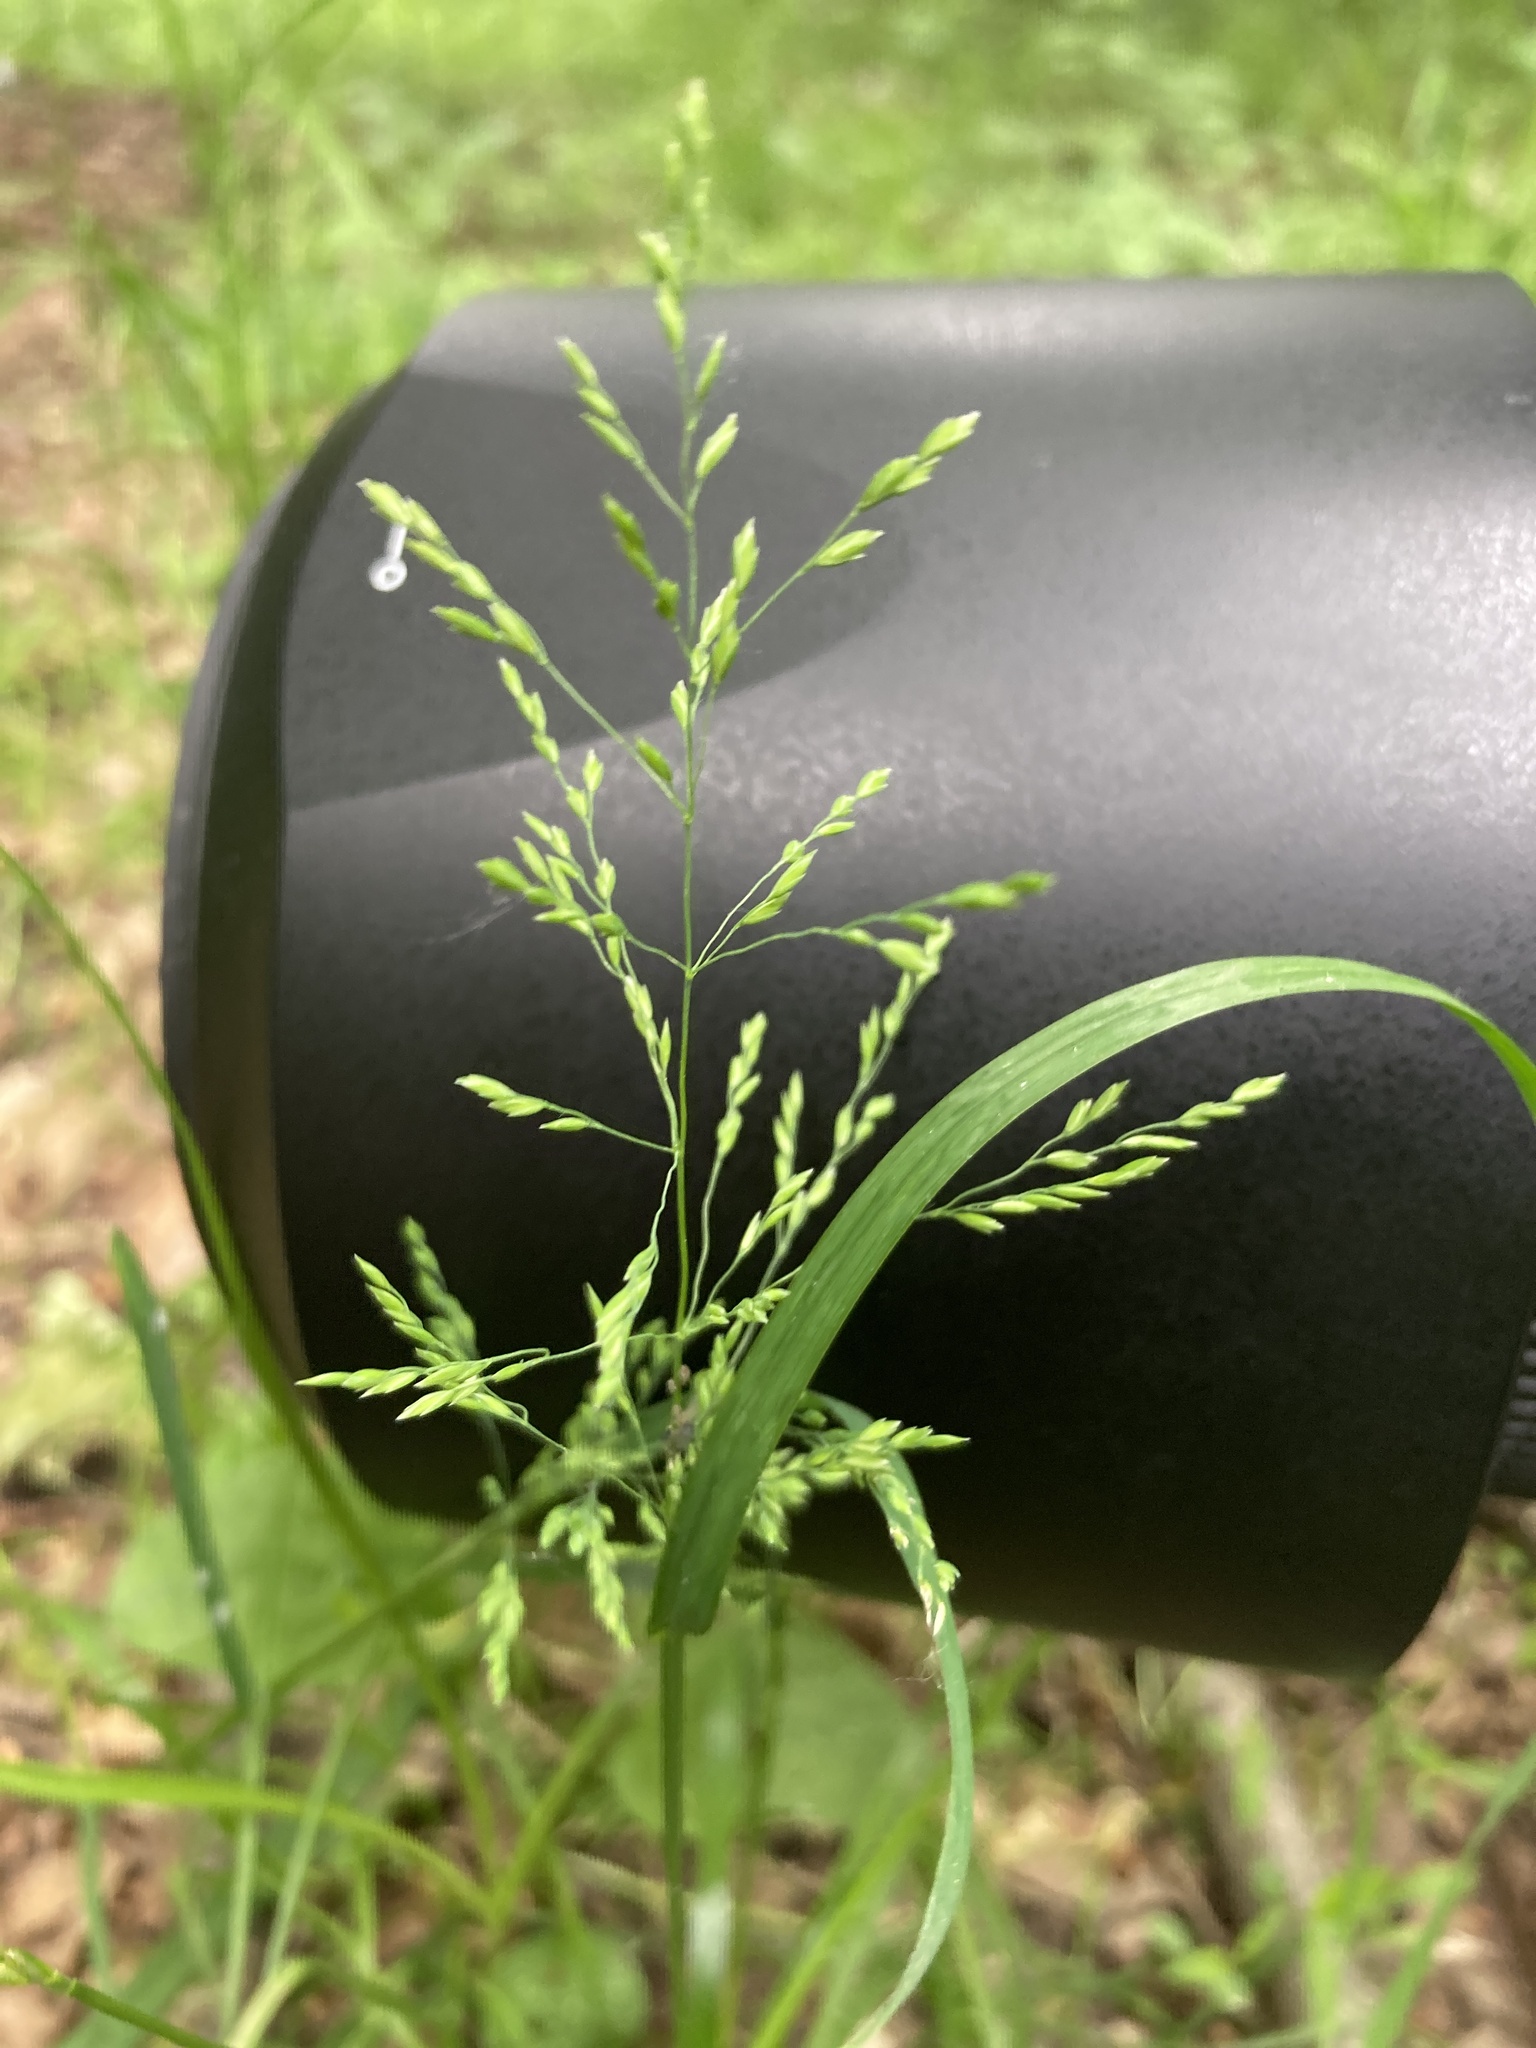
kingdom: Plantae
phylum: Tracheophyta
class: Liliopsida
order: Poales
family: Poaceae
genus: Poa
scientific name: Poa trivialis
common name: Rough bluegrass
